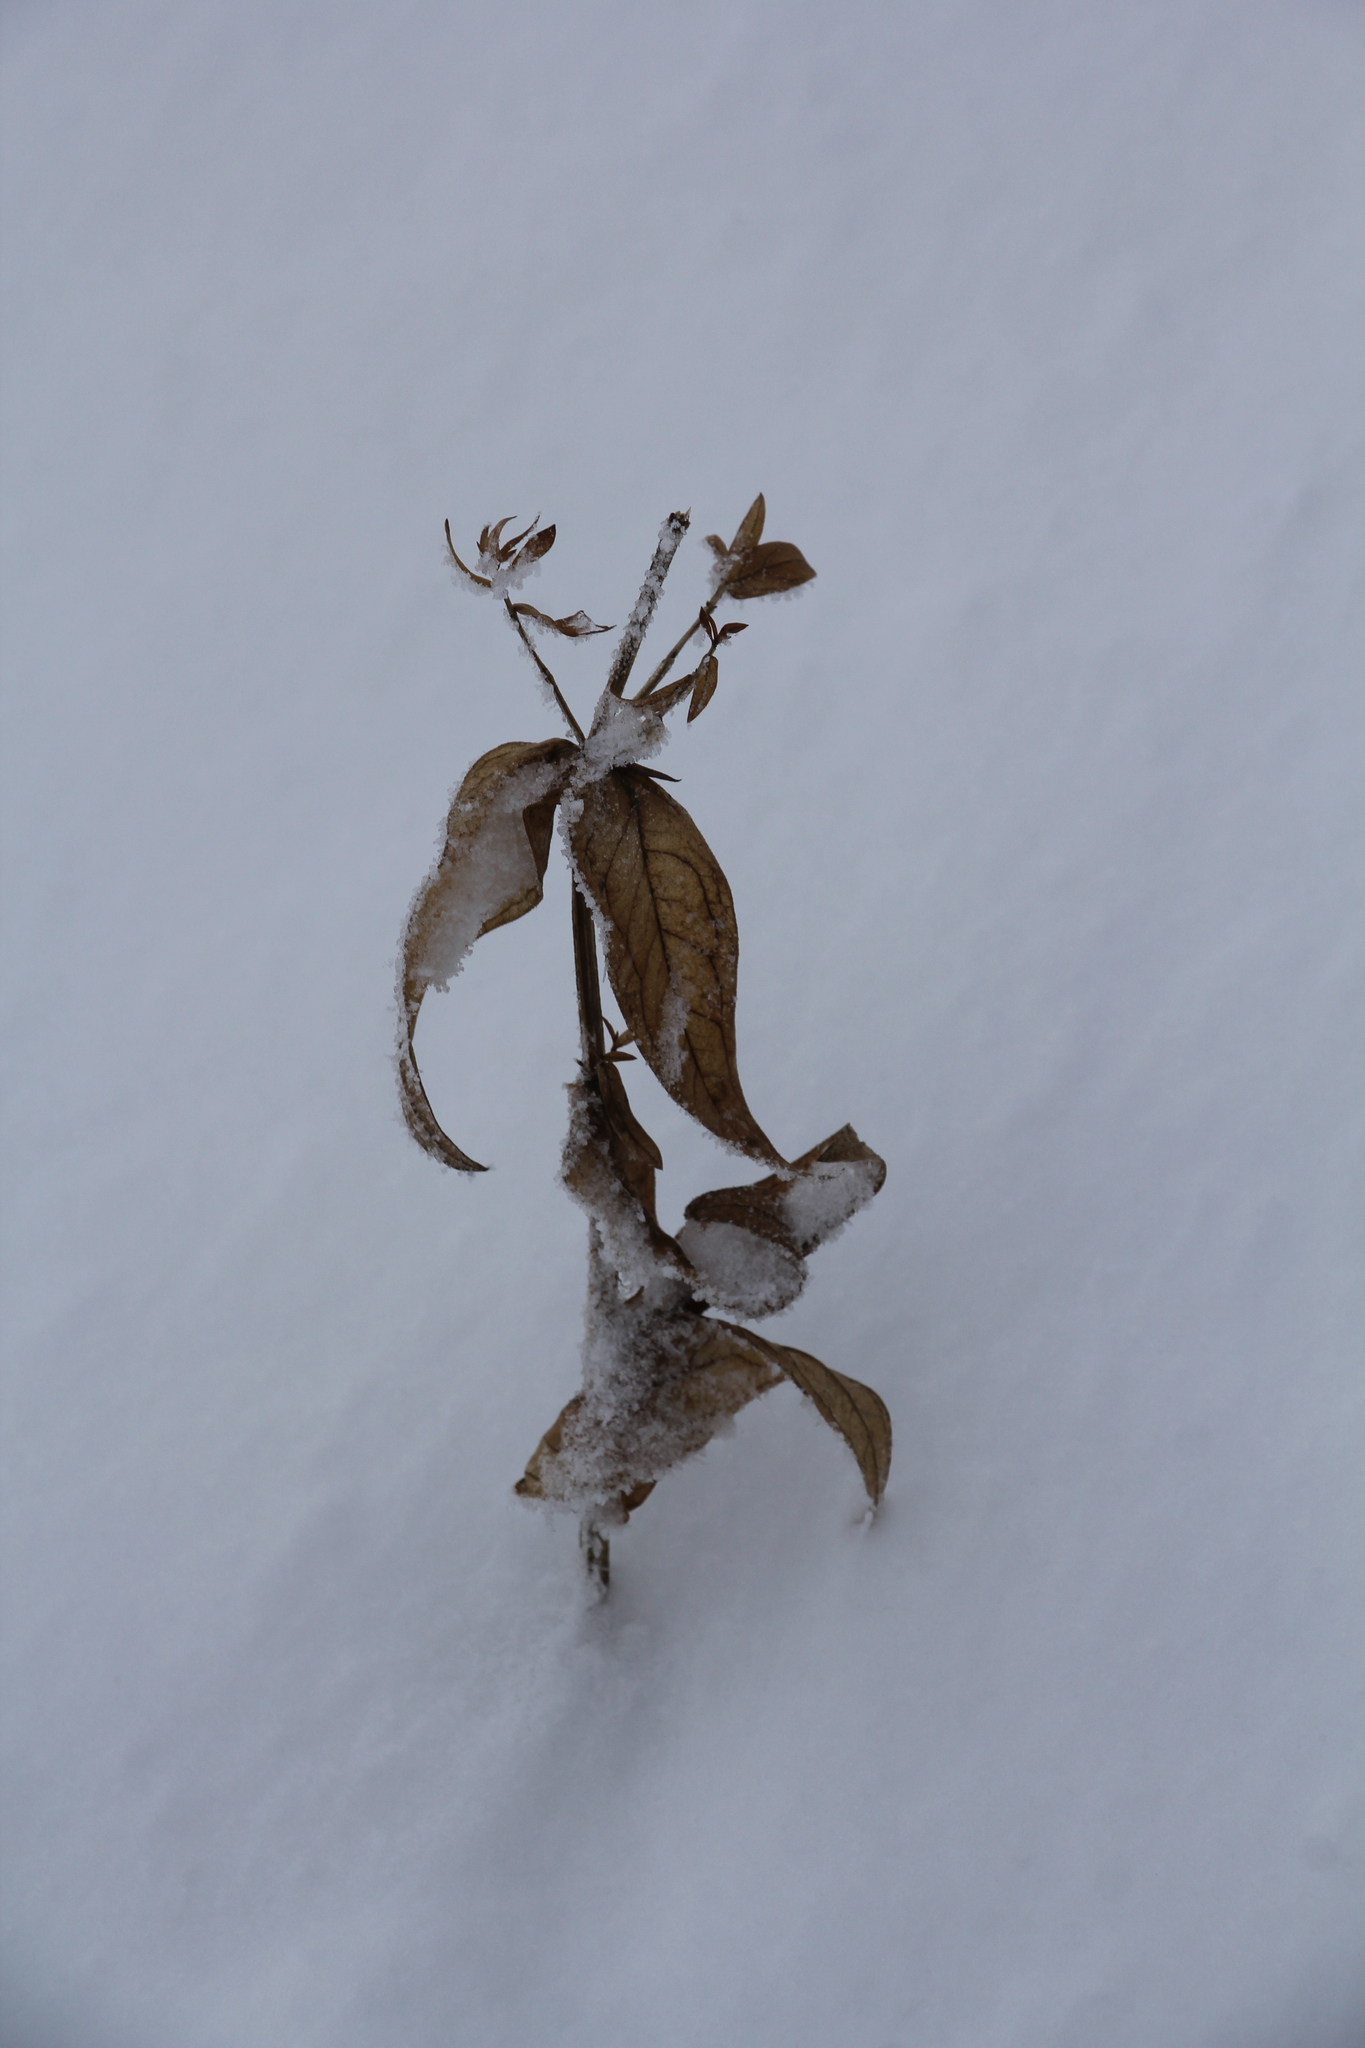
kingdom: Plantae
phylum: Tracheophyta
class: Magnoliopsida
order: Ericales
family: Primulaceae
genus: Lysimachia
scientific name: Lysimachia vulgaris
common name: Yellow loosestrife
